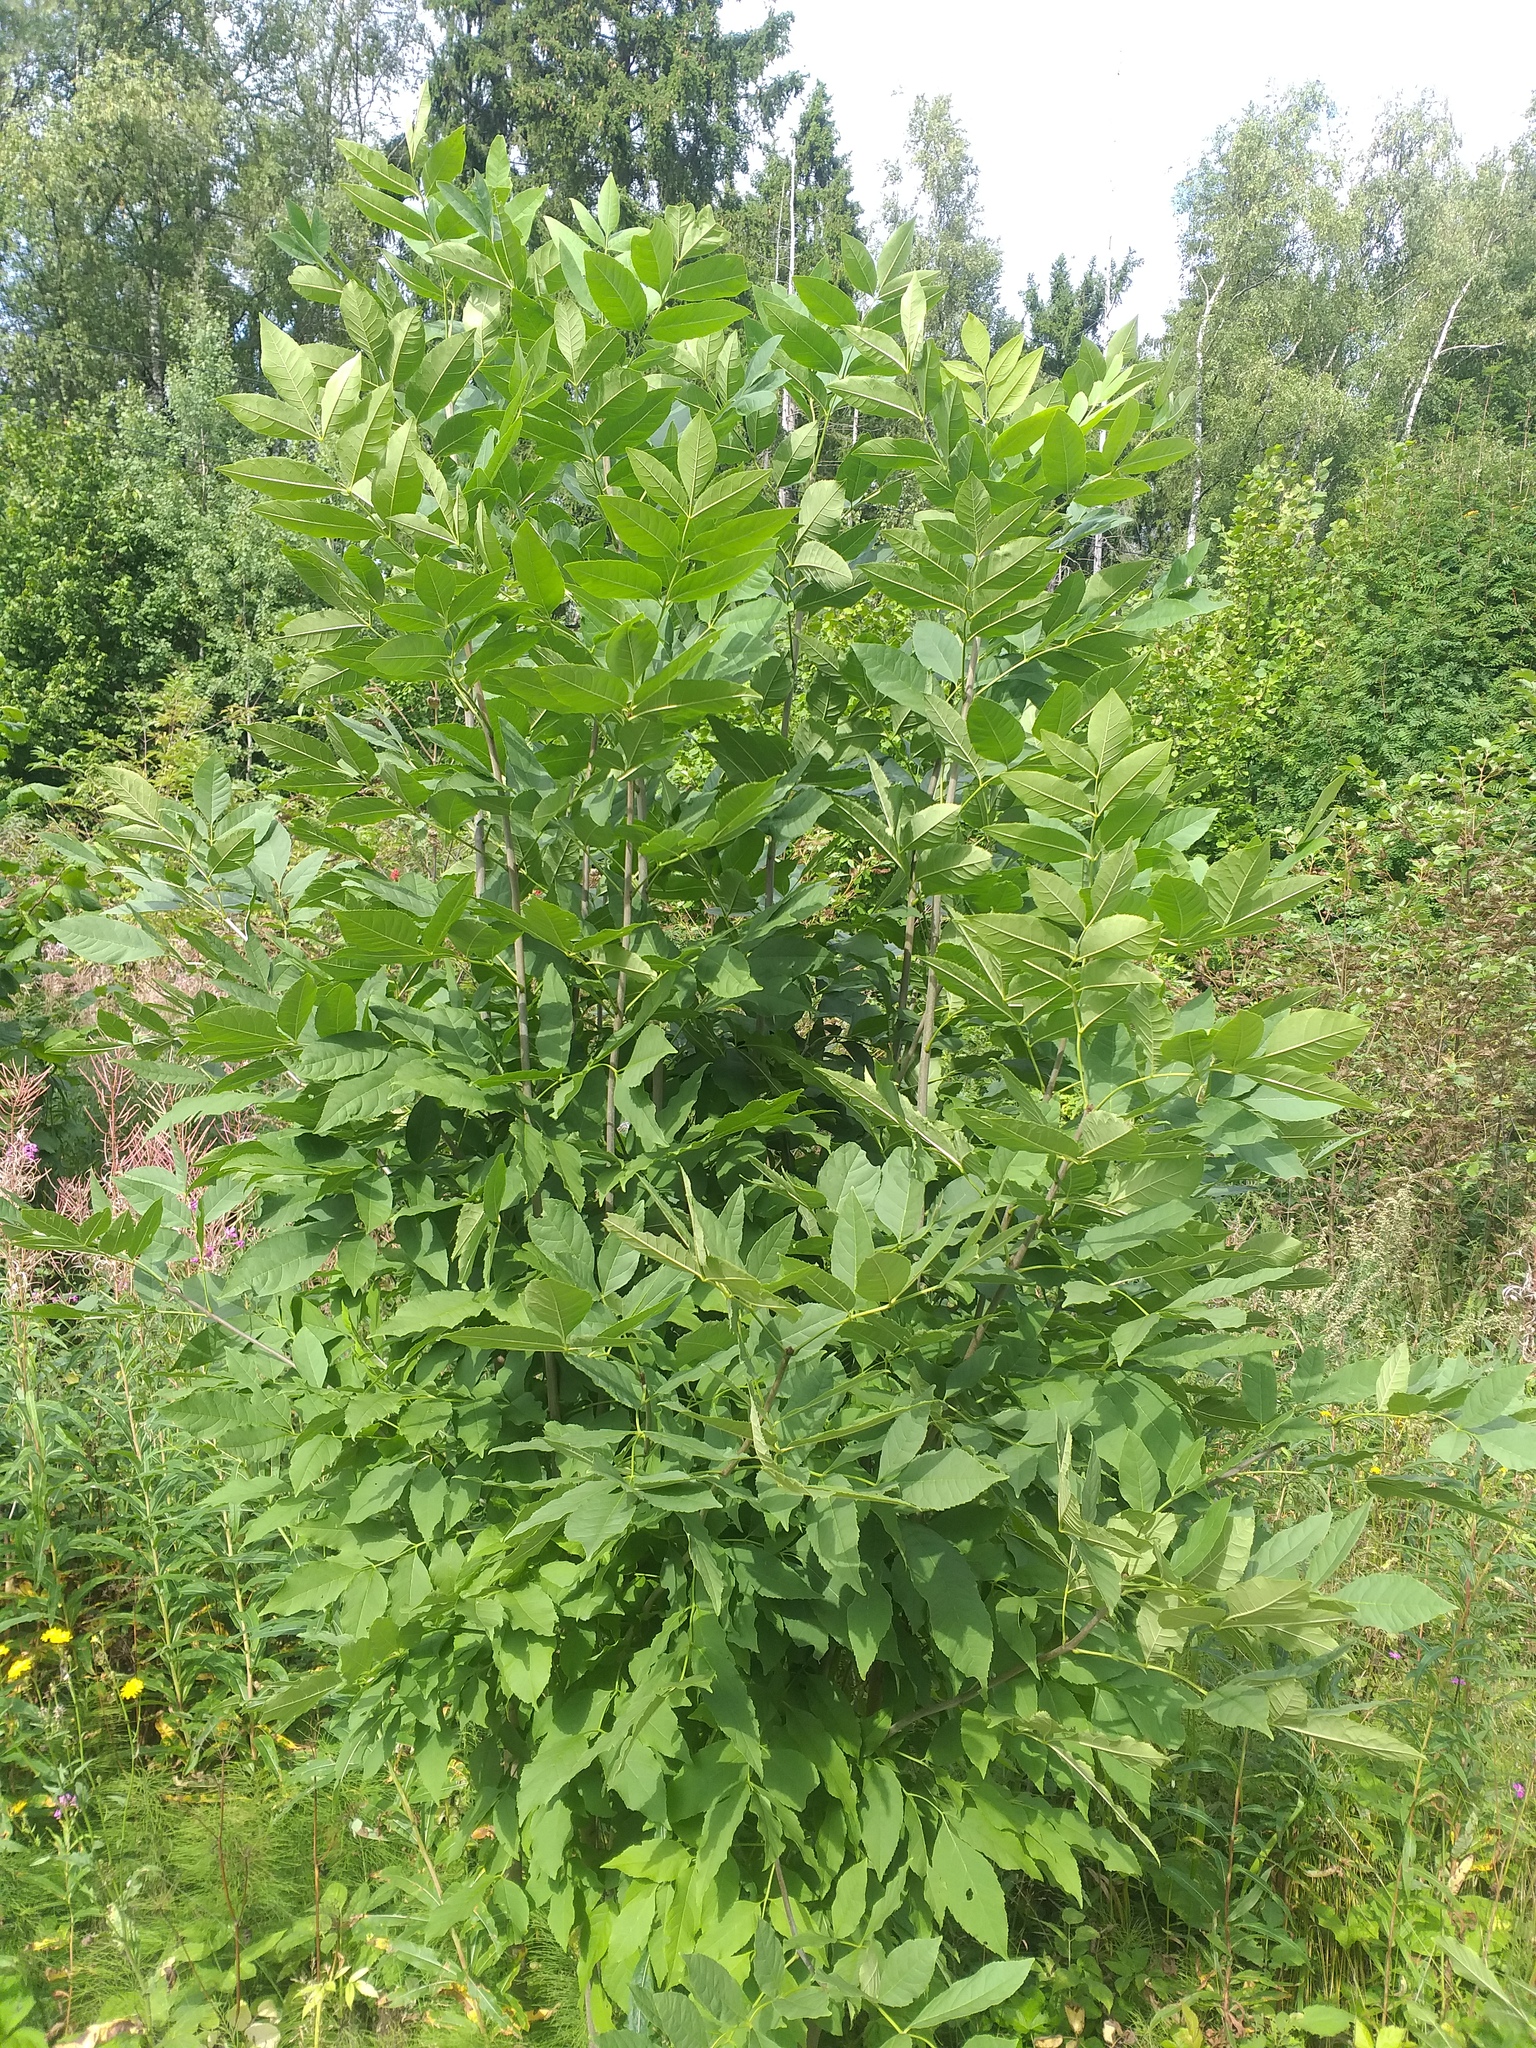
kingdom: Plantae
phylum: Tracheophyta
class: Magnoliopsida
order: Lamiales
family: Oleaceae
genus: Fraxinus
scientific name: Fraxinus pennsylvanica
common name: Green ash
